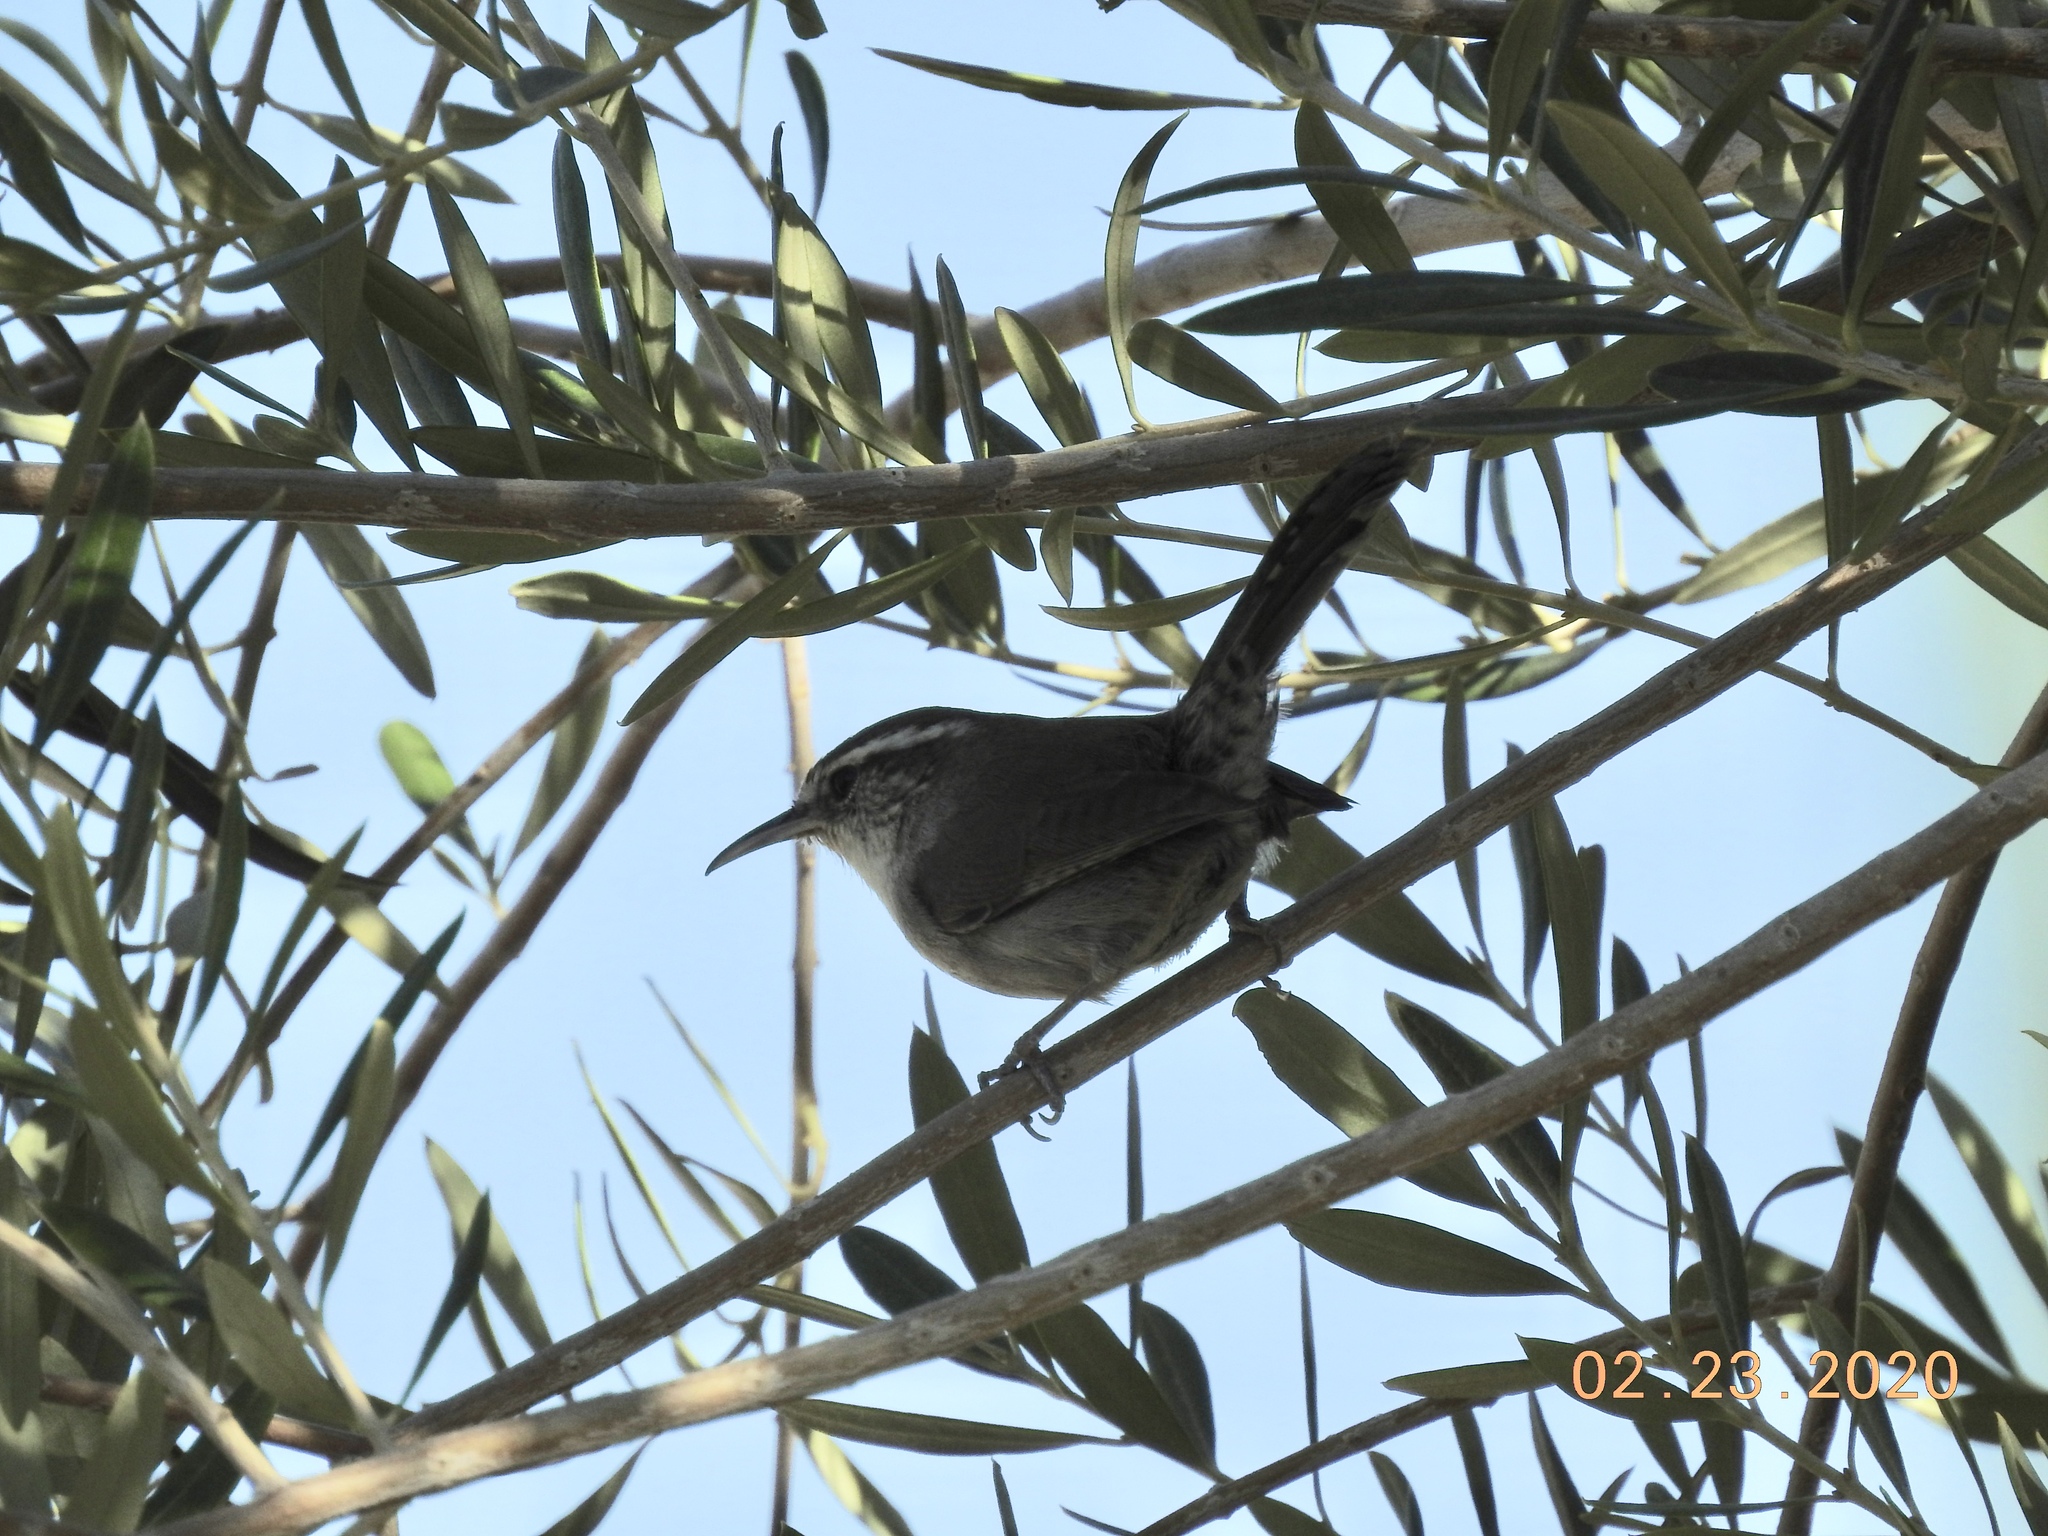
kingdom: Animalia
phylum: Chordata
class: Aves
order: Passeriformes
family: Troglodytidae
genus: Thryomanes
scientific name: Thryomanes bewickii
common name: Bewick's wren
